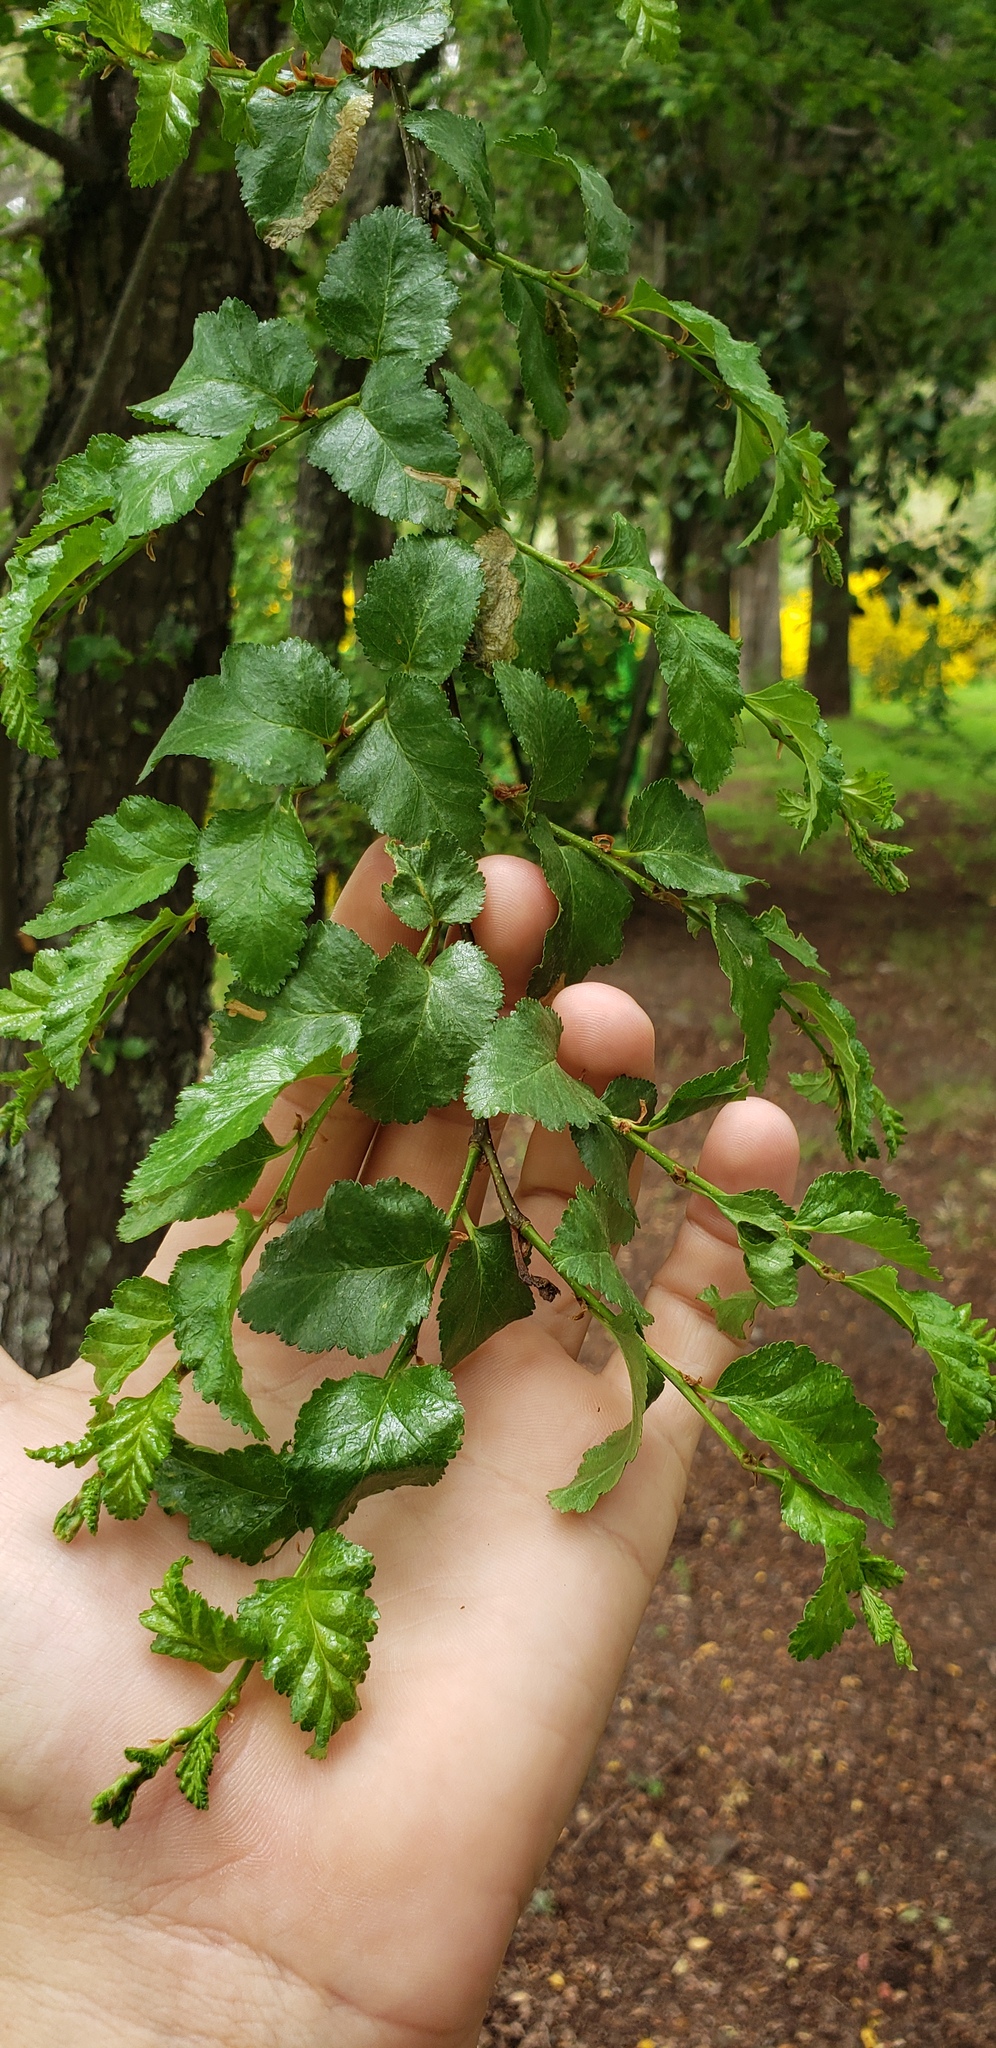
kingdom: Plantae
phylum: Tracheophyta
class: Magnoliopsida
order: Fagales
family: Nothofagaceae
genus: Nothofagus
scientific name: Nothofagus antarctica
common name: Antarctic beech
